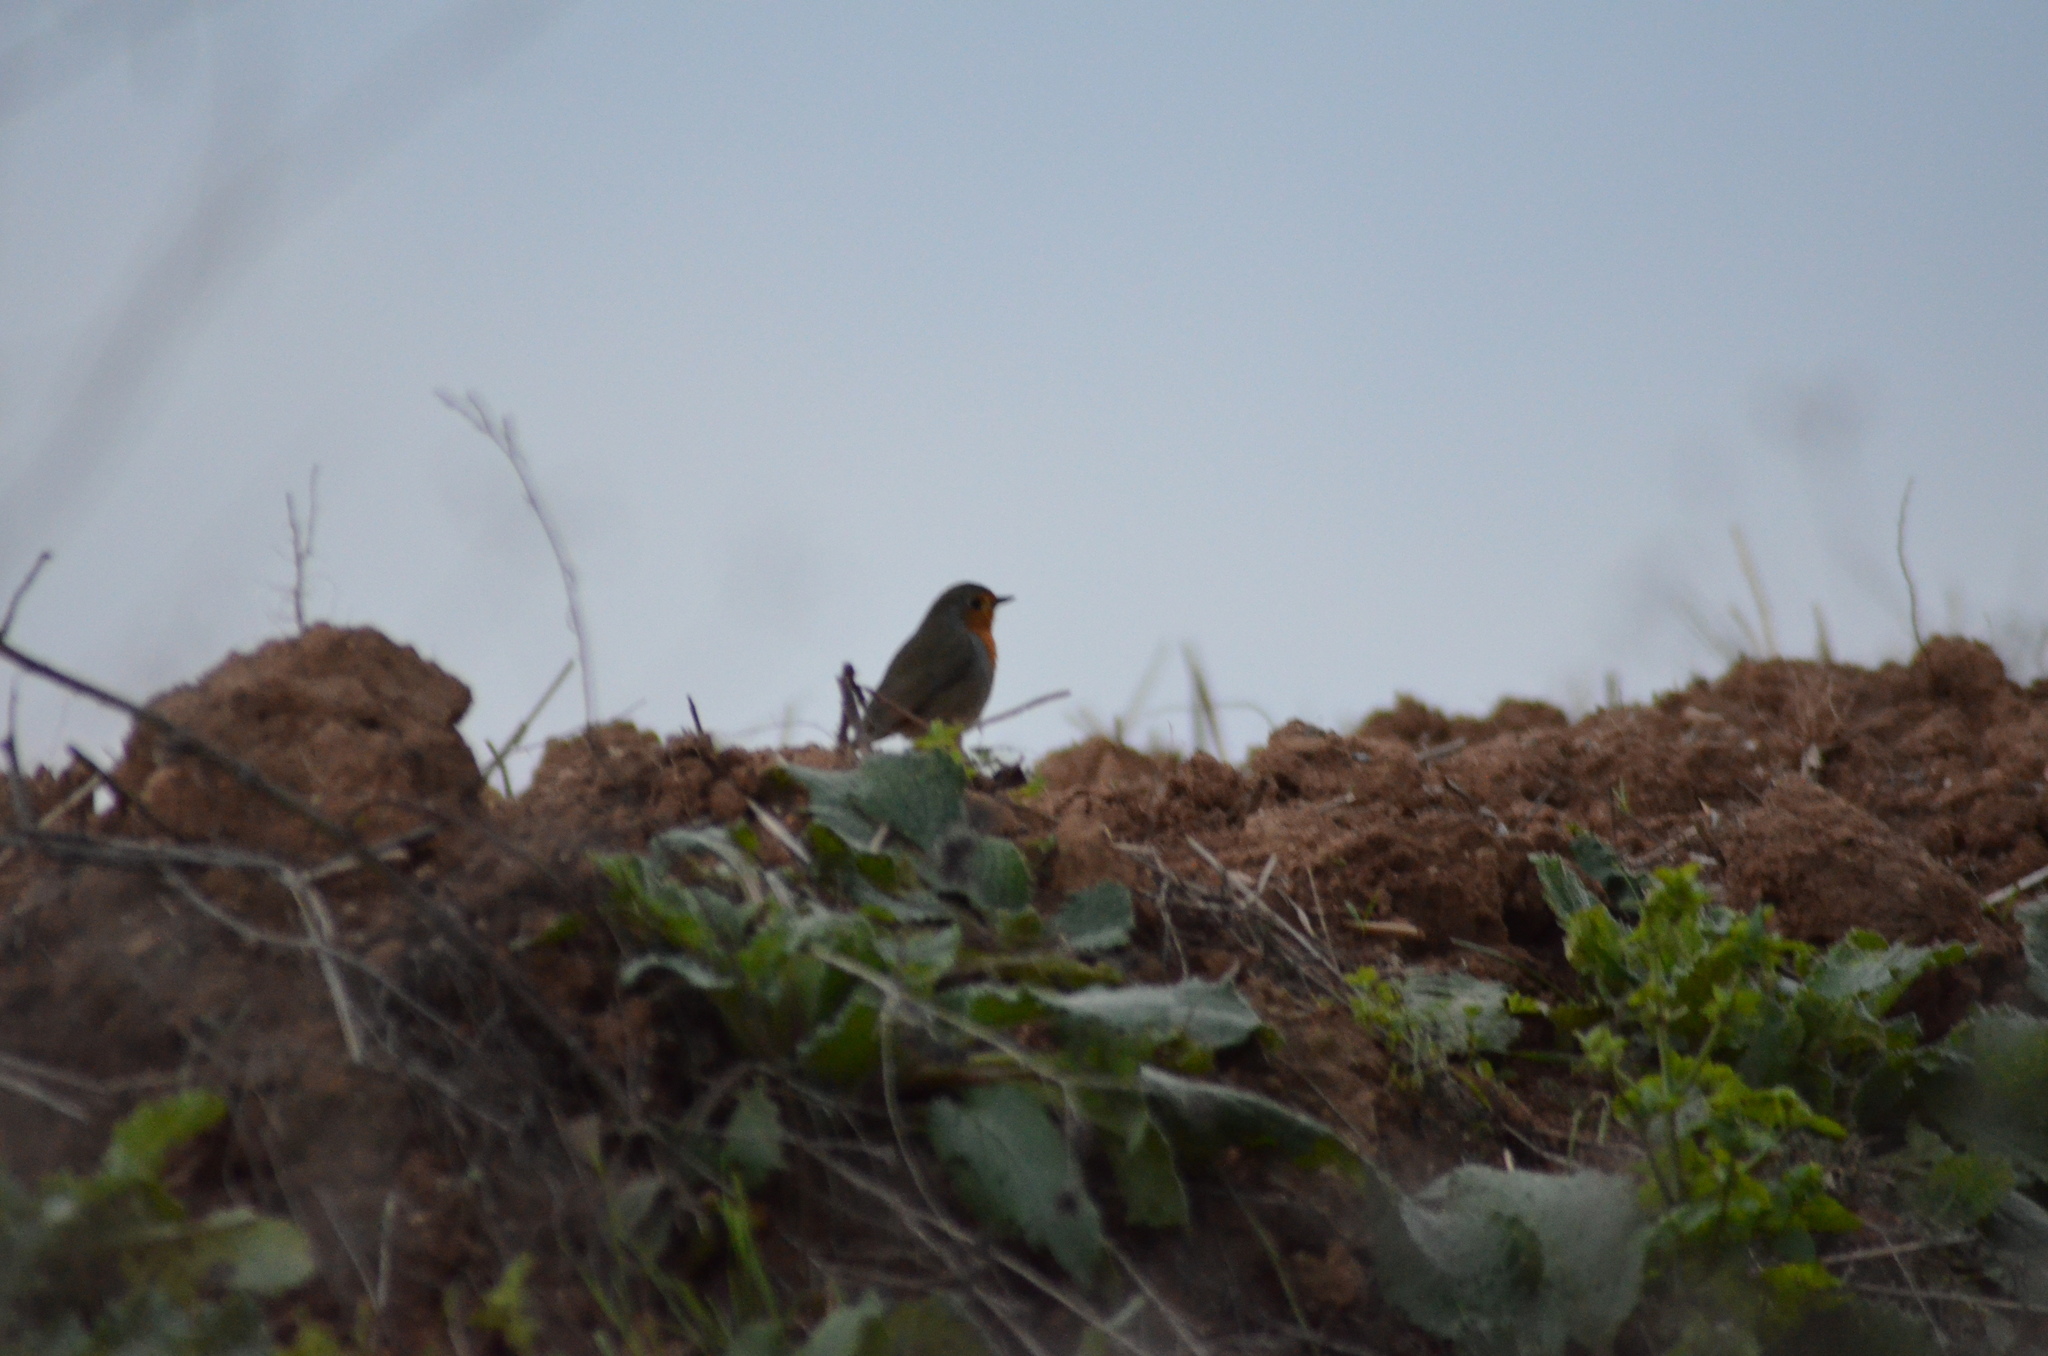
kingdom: Animalia
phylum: Chordata
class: Aves
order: Passeriformes
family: Muscicapidae
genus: Erithacus
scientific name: Erithacus rubecula
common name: European robin
